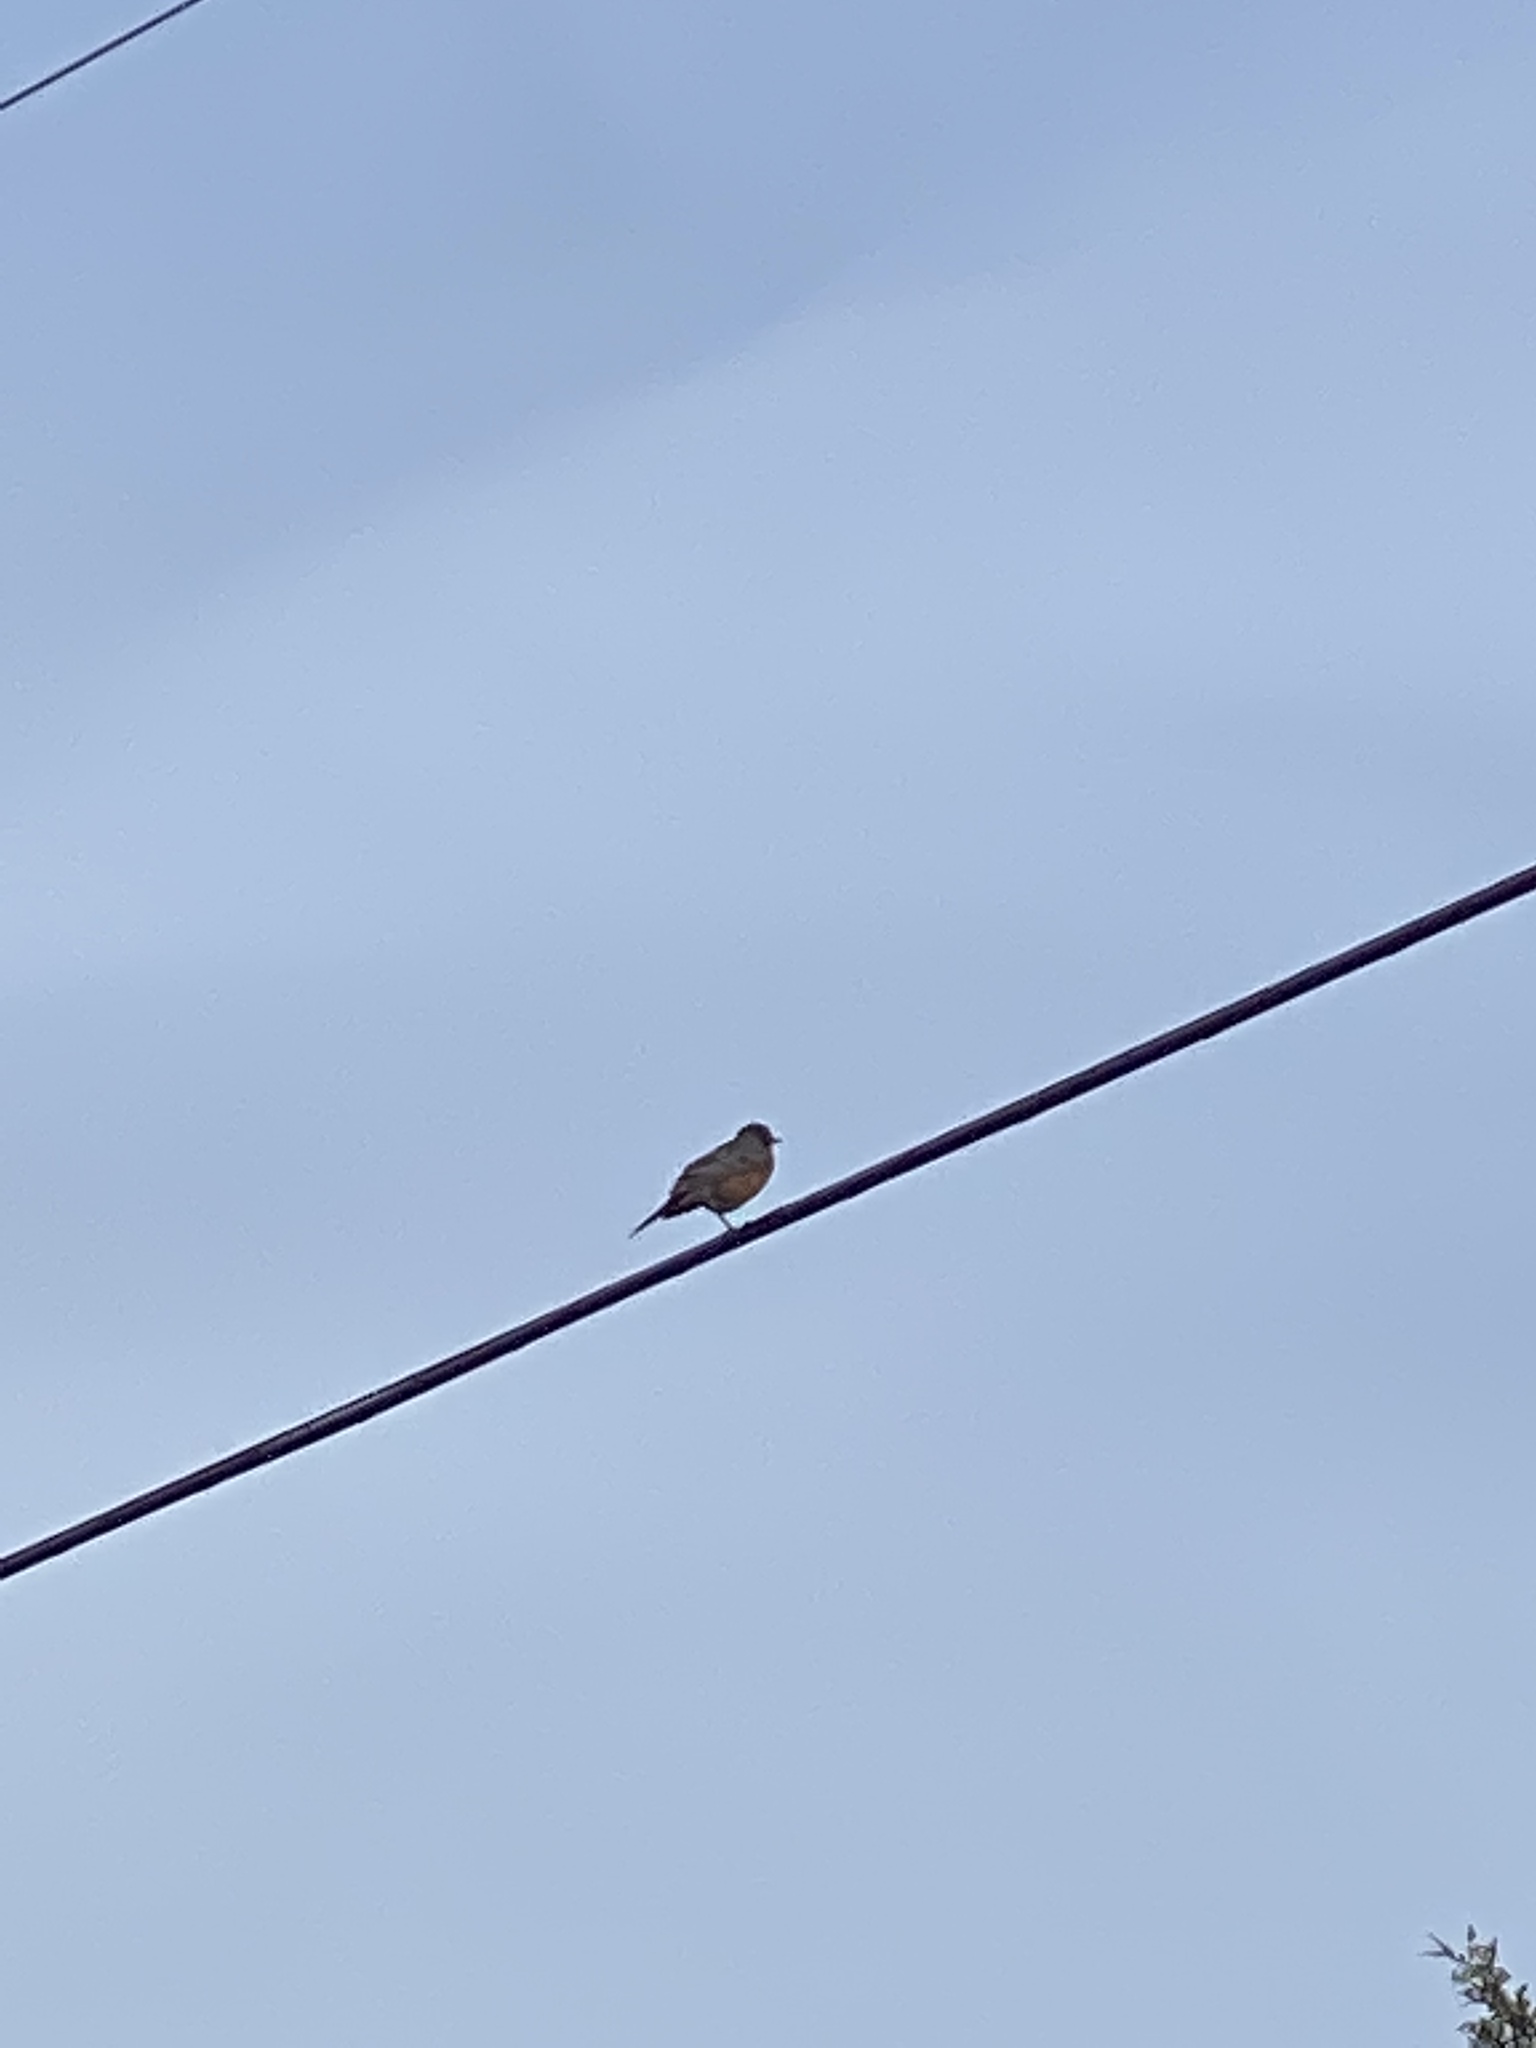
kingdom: Animalia
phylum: Chordata
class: Aves
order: Passeriformes
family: Turdidae
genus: Turdus
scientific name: Turdus migratorius
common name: American robin
